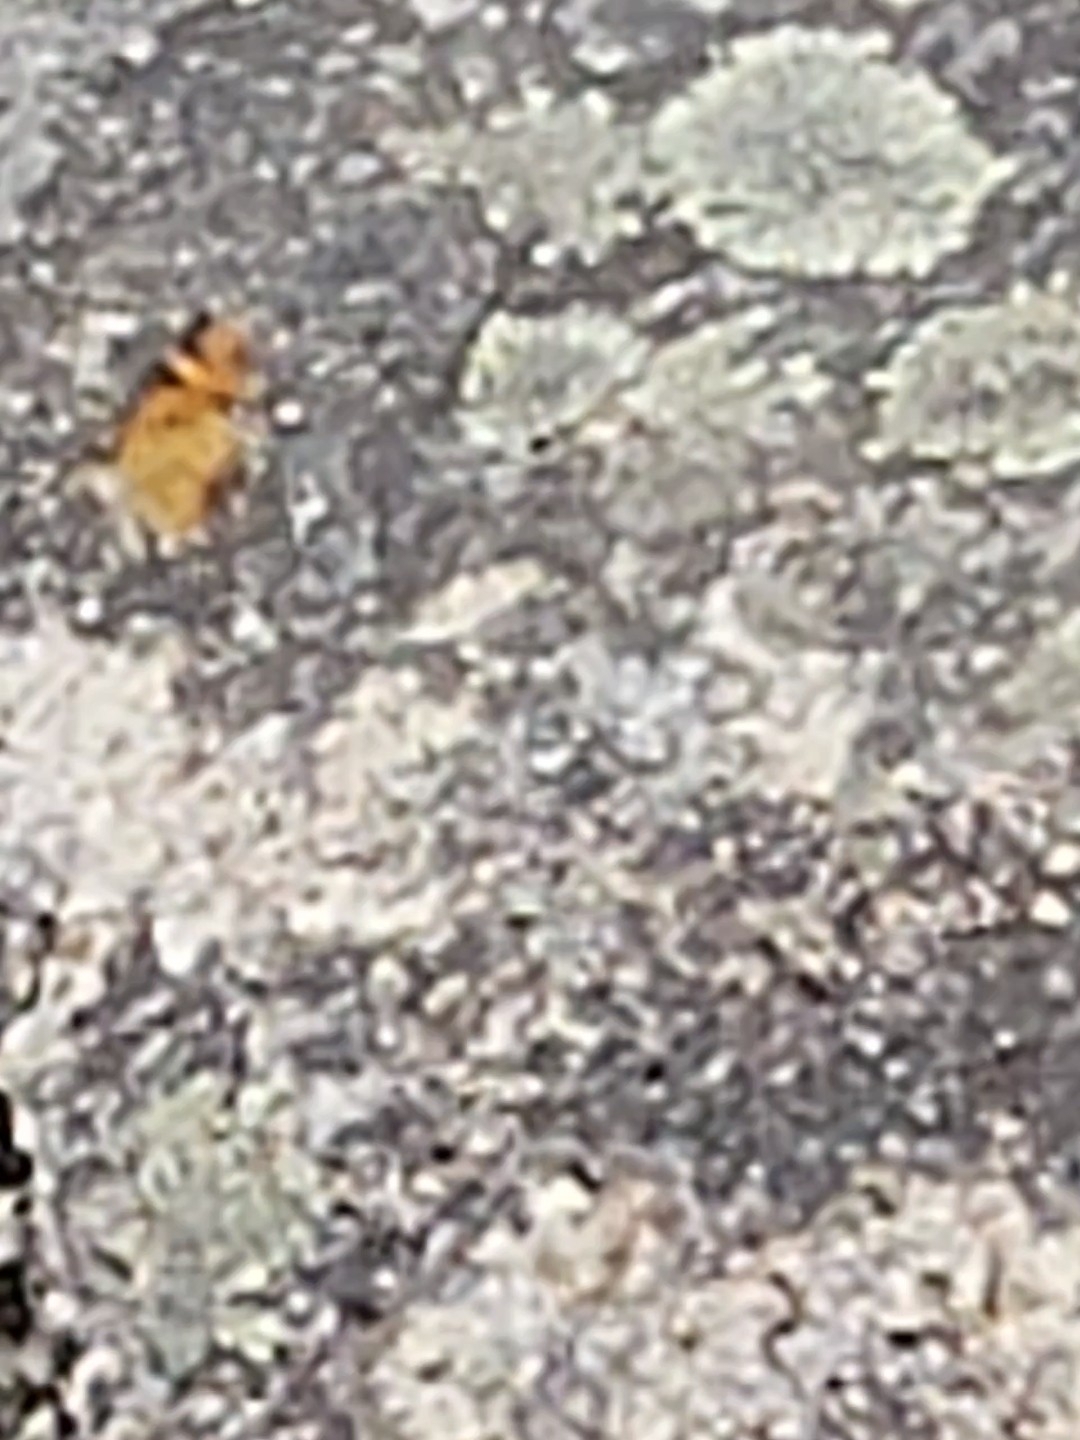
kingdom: Animalia
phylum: Arthropoda
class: Insecta
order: Lepidoptera
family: Nymphalidae
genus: Phyciodes
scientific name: Phyciodes tharos
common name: Pearl crescent
